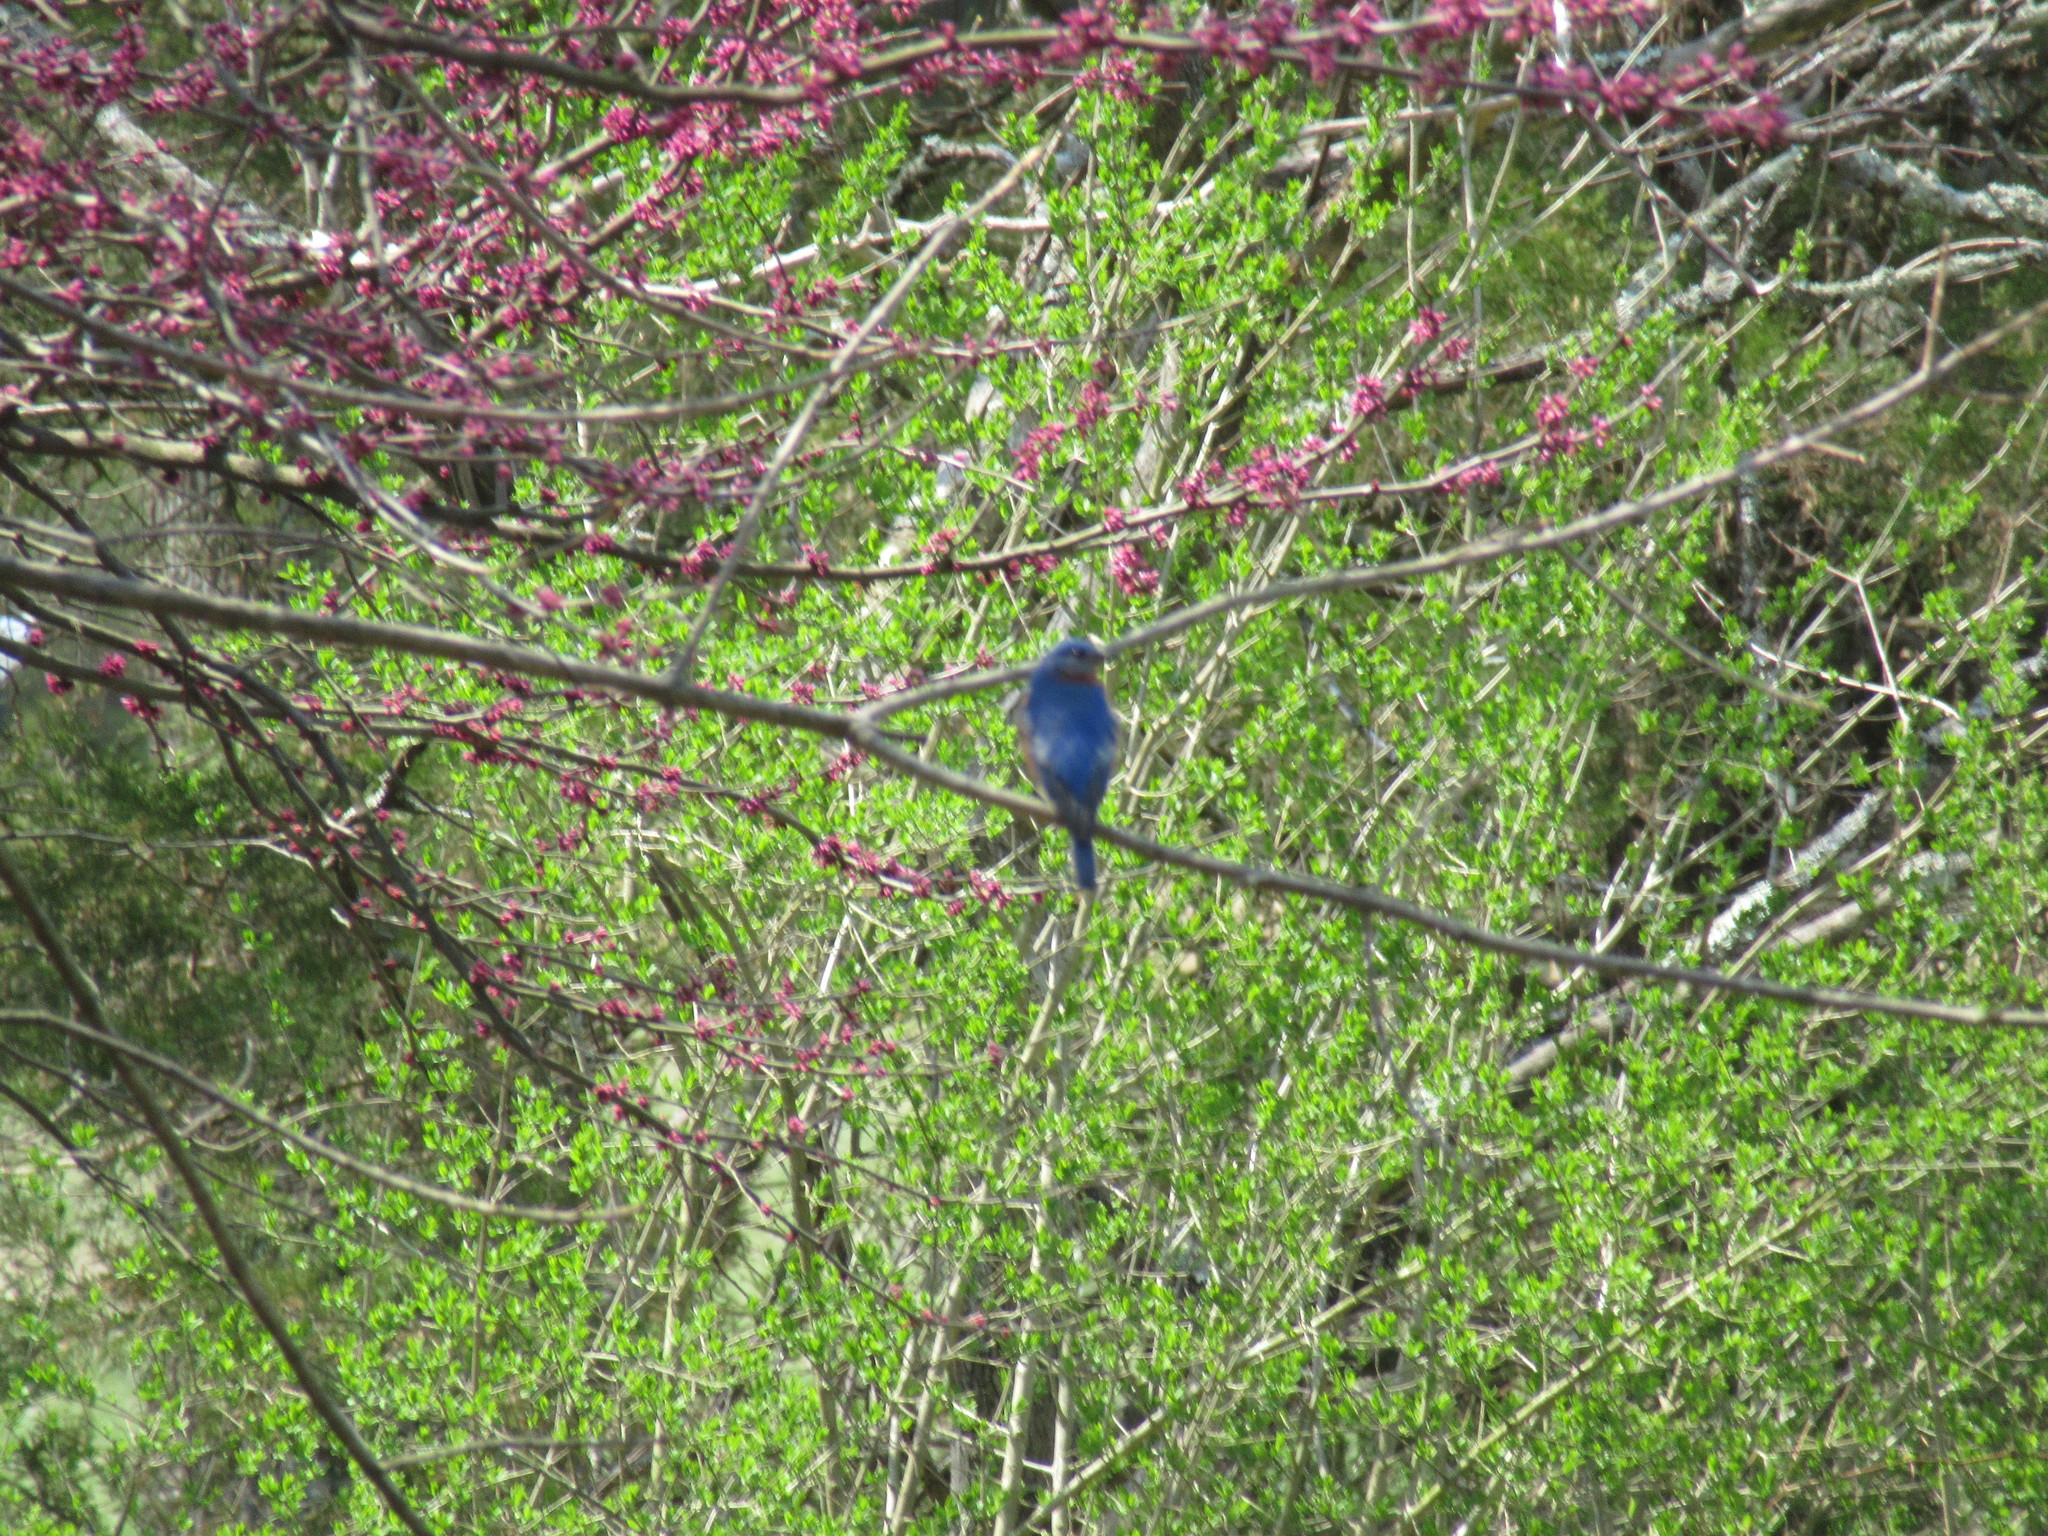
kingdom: Animalia
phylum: Chordata
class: Aves
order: Passeriformes
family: Turdidae
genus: Sialia
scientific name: Sialia sialis
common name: Eastern bluebird
